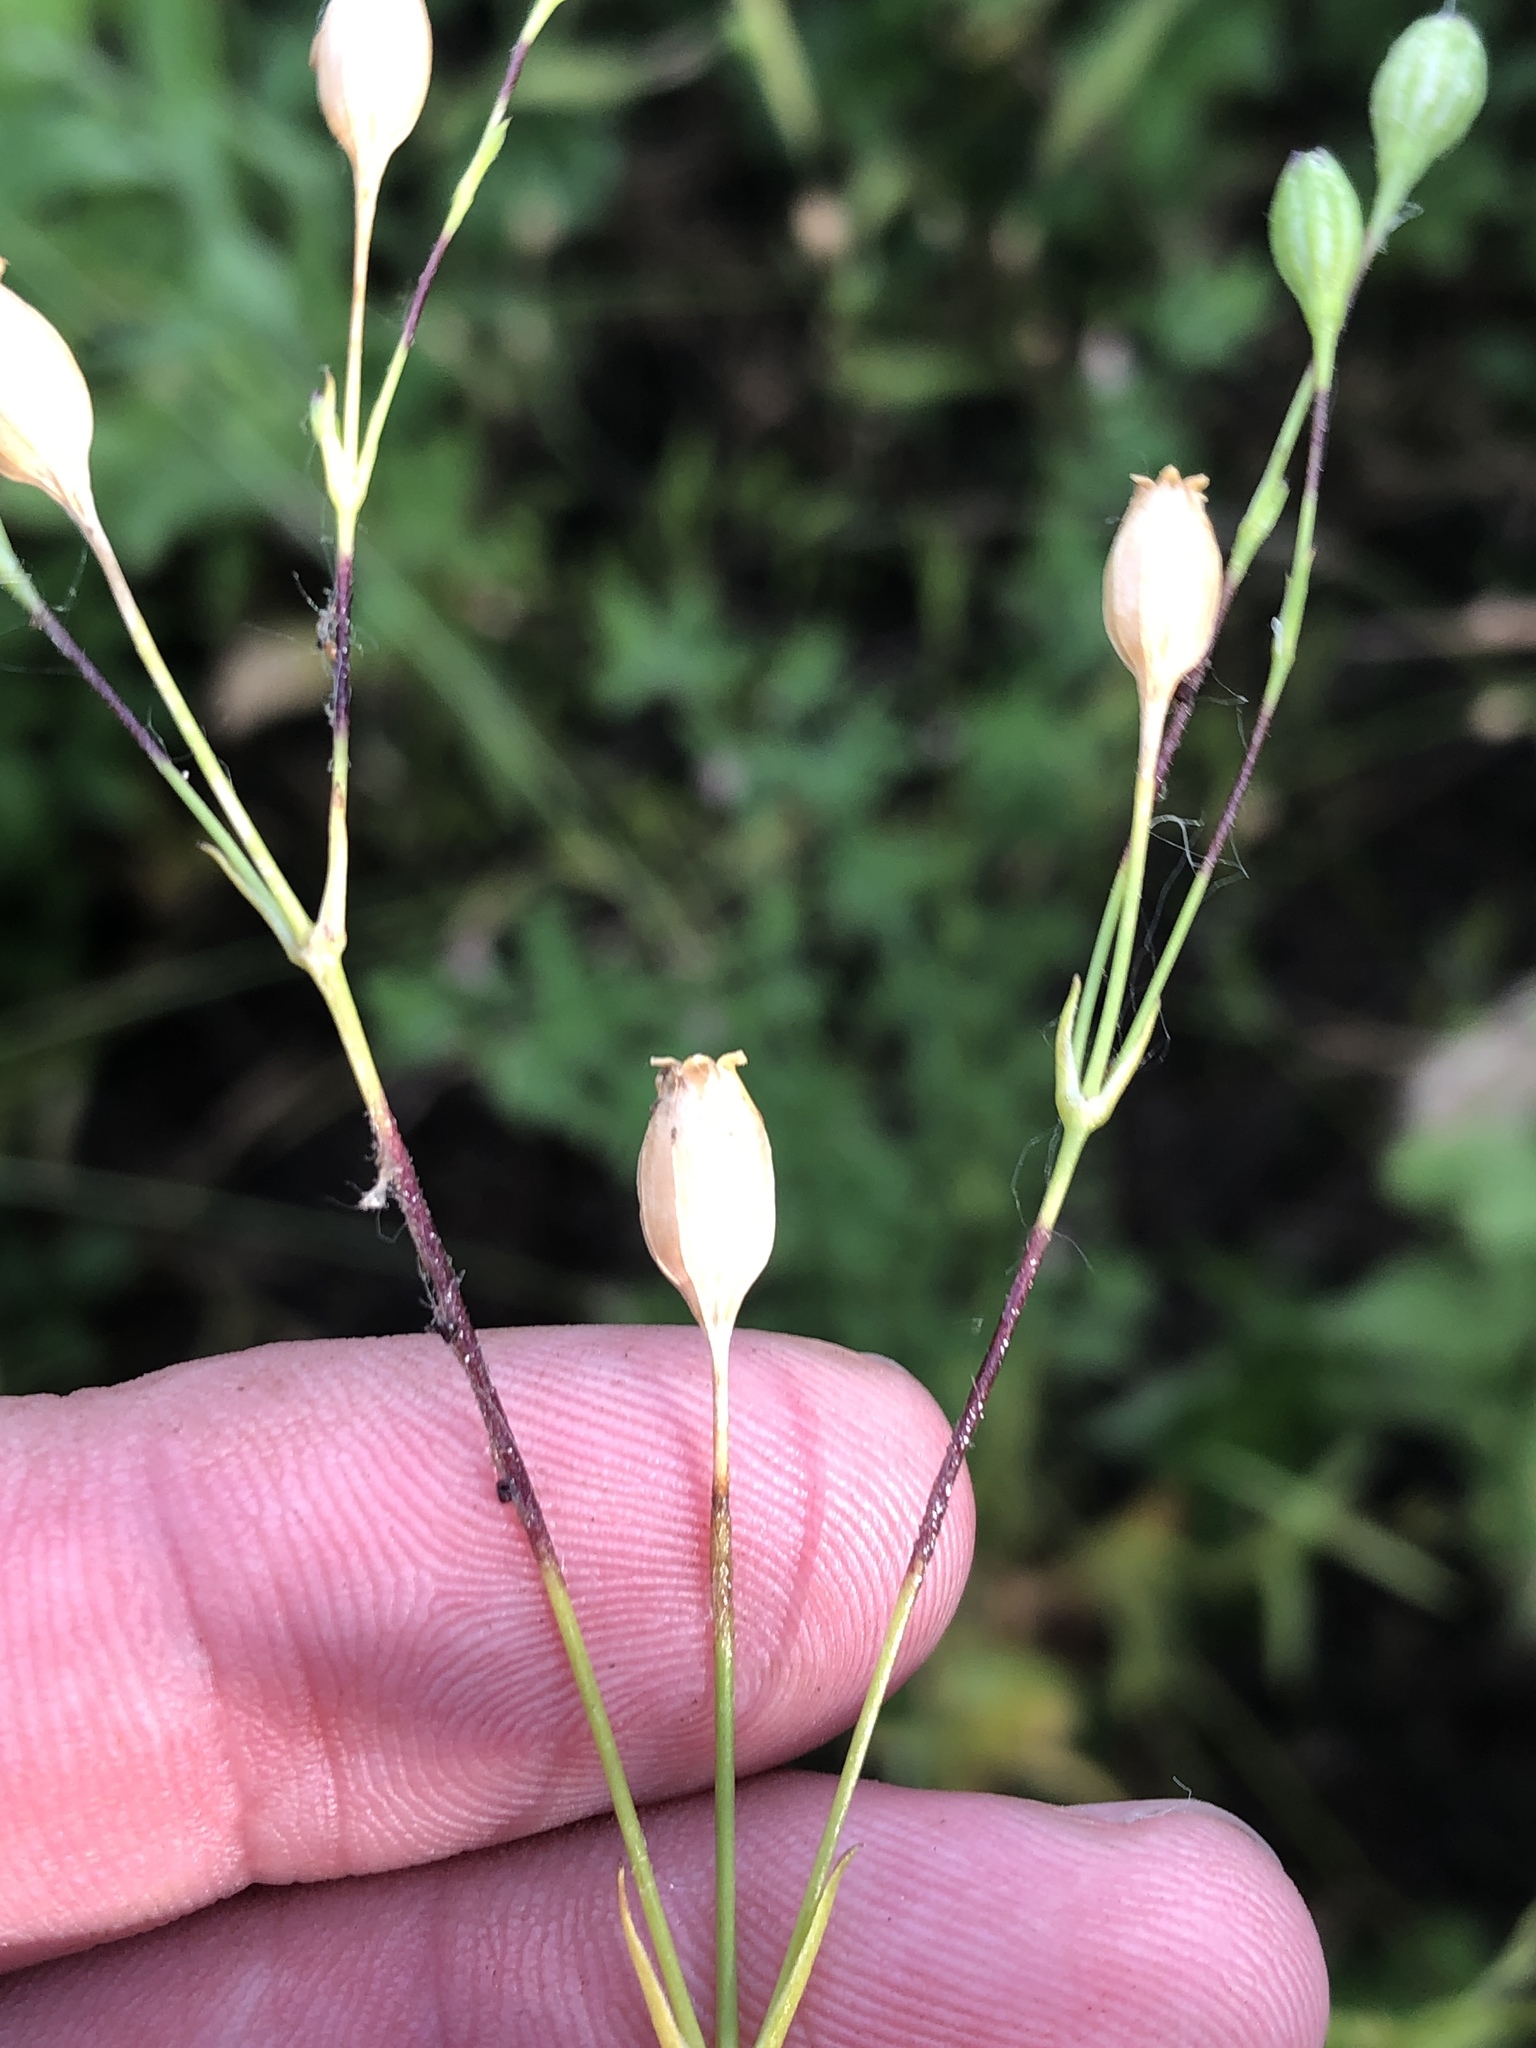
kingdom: Plantae
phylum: Tracheophyta
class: Magnoliopsida
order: Caryophyllales
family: Caryophyllaceae
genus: Silene
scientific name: Silene antirrhina
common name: Sleepy catchfly
